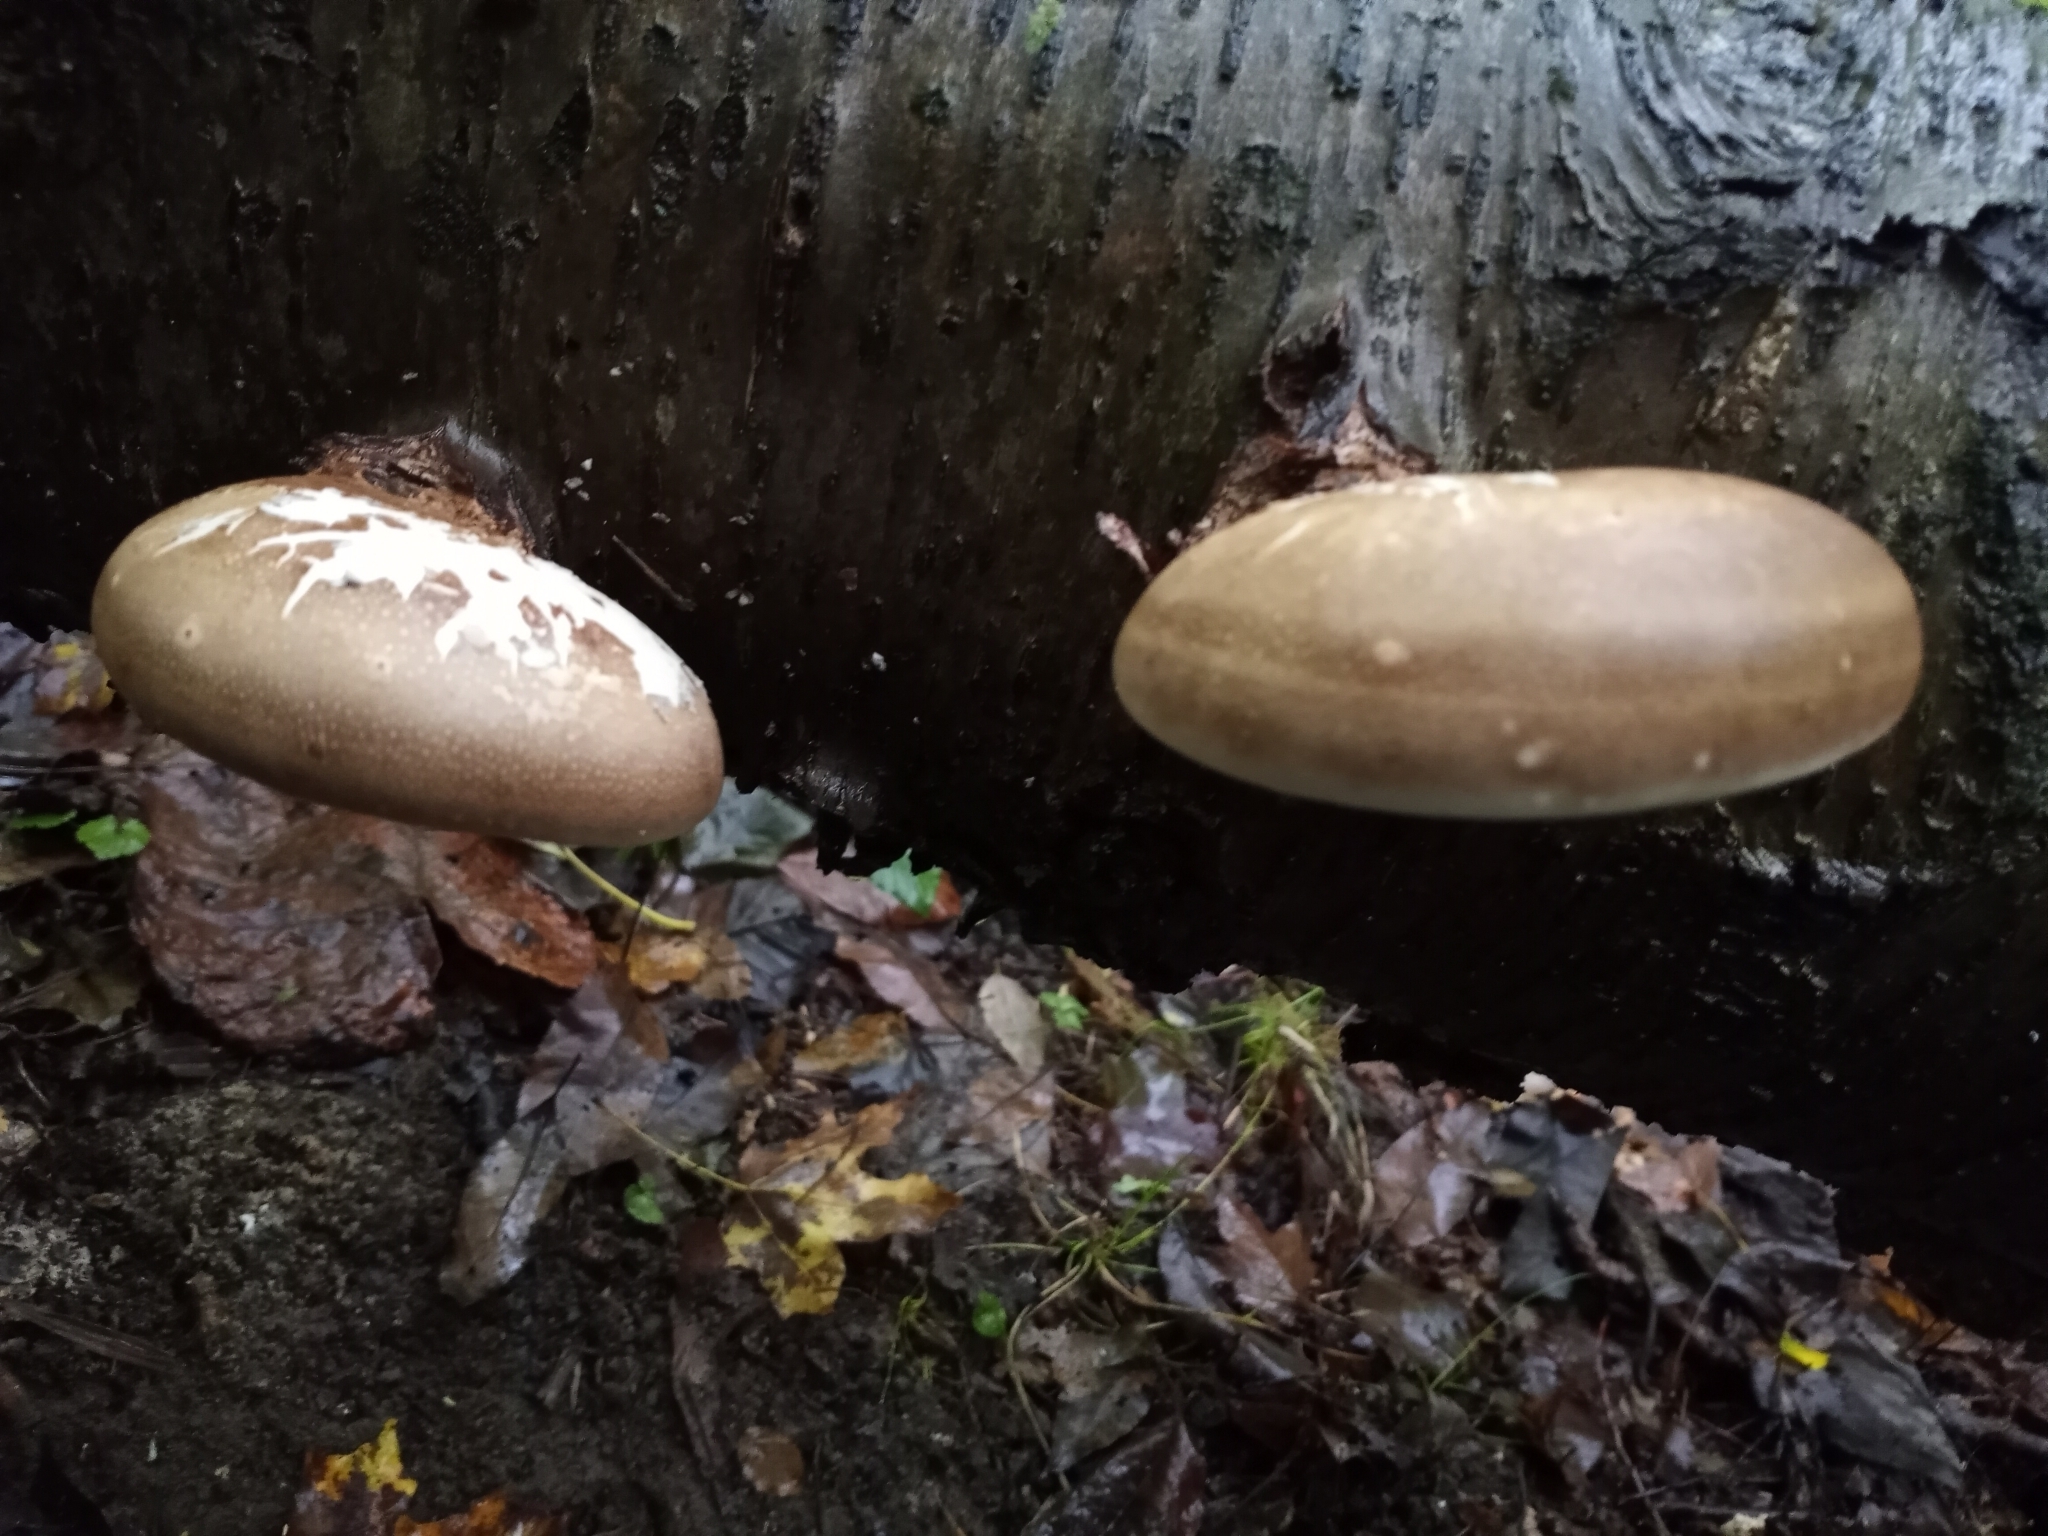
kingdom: Fungi
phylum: Basidiomycota
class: Agaricomycetes
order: Polyporales
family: Fomitopsidaceae
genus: Fomitopsis
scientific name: Fomitopsis betulina
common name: Birch polypore
